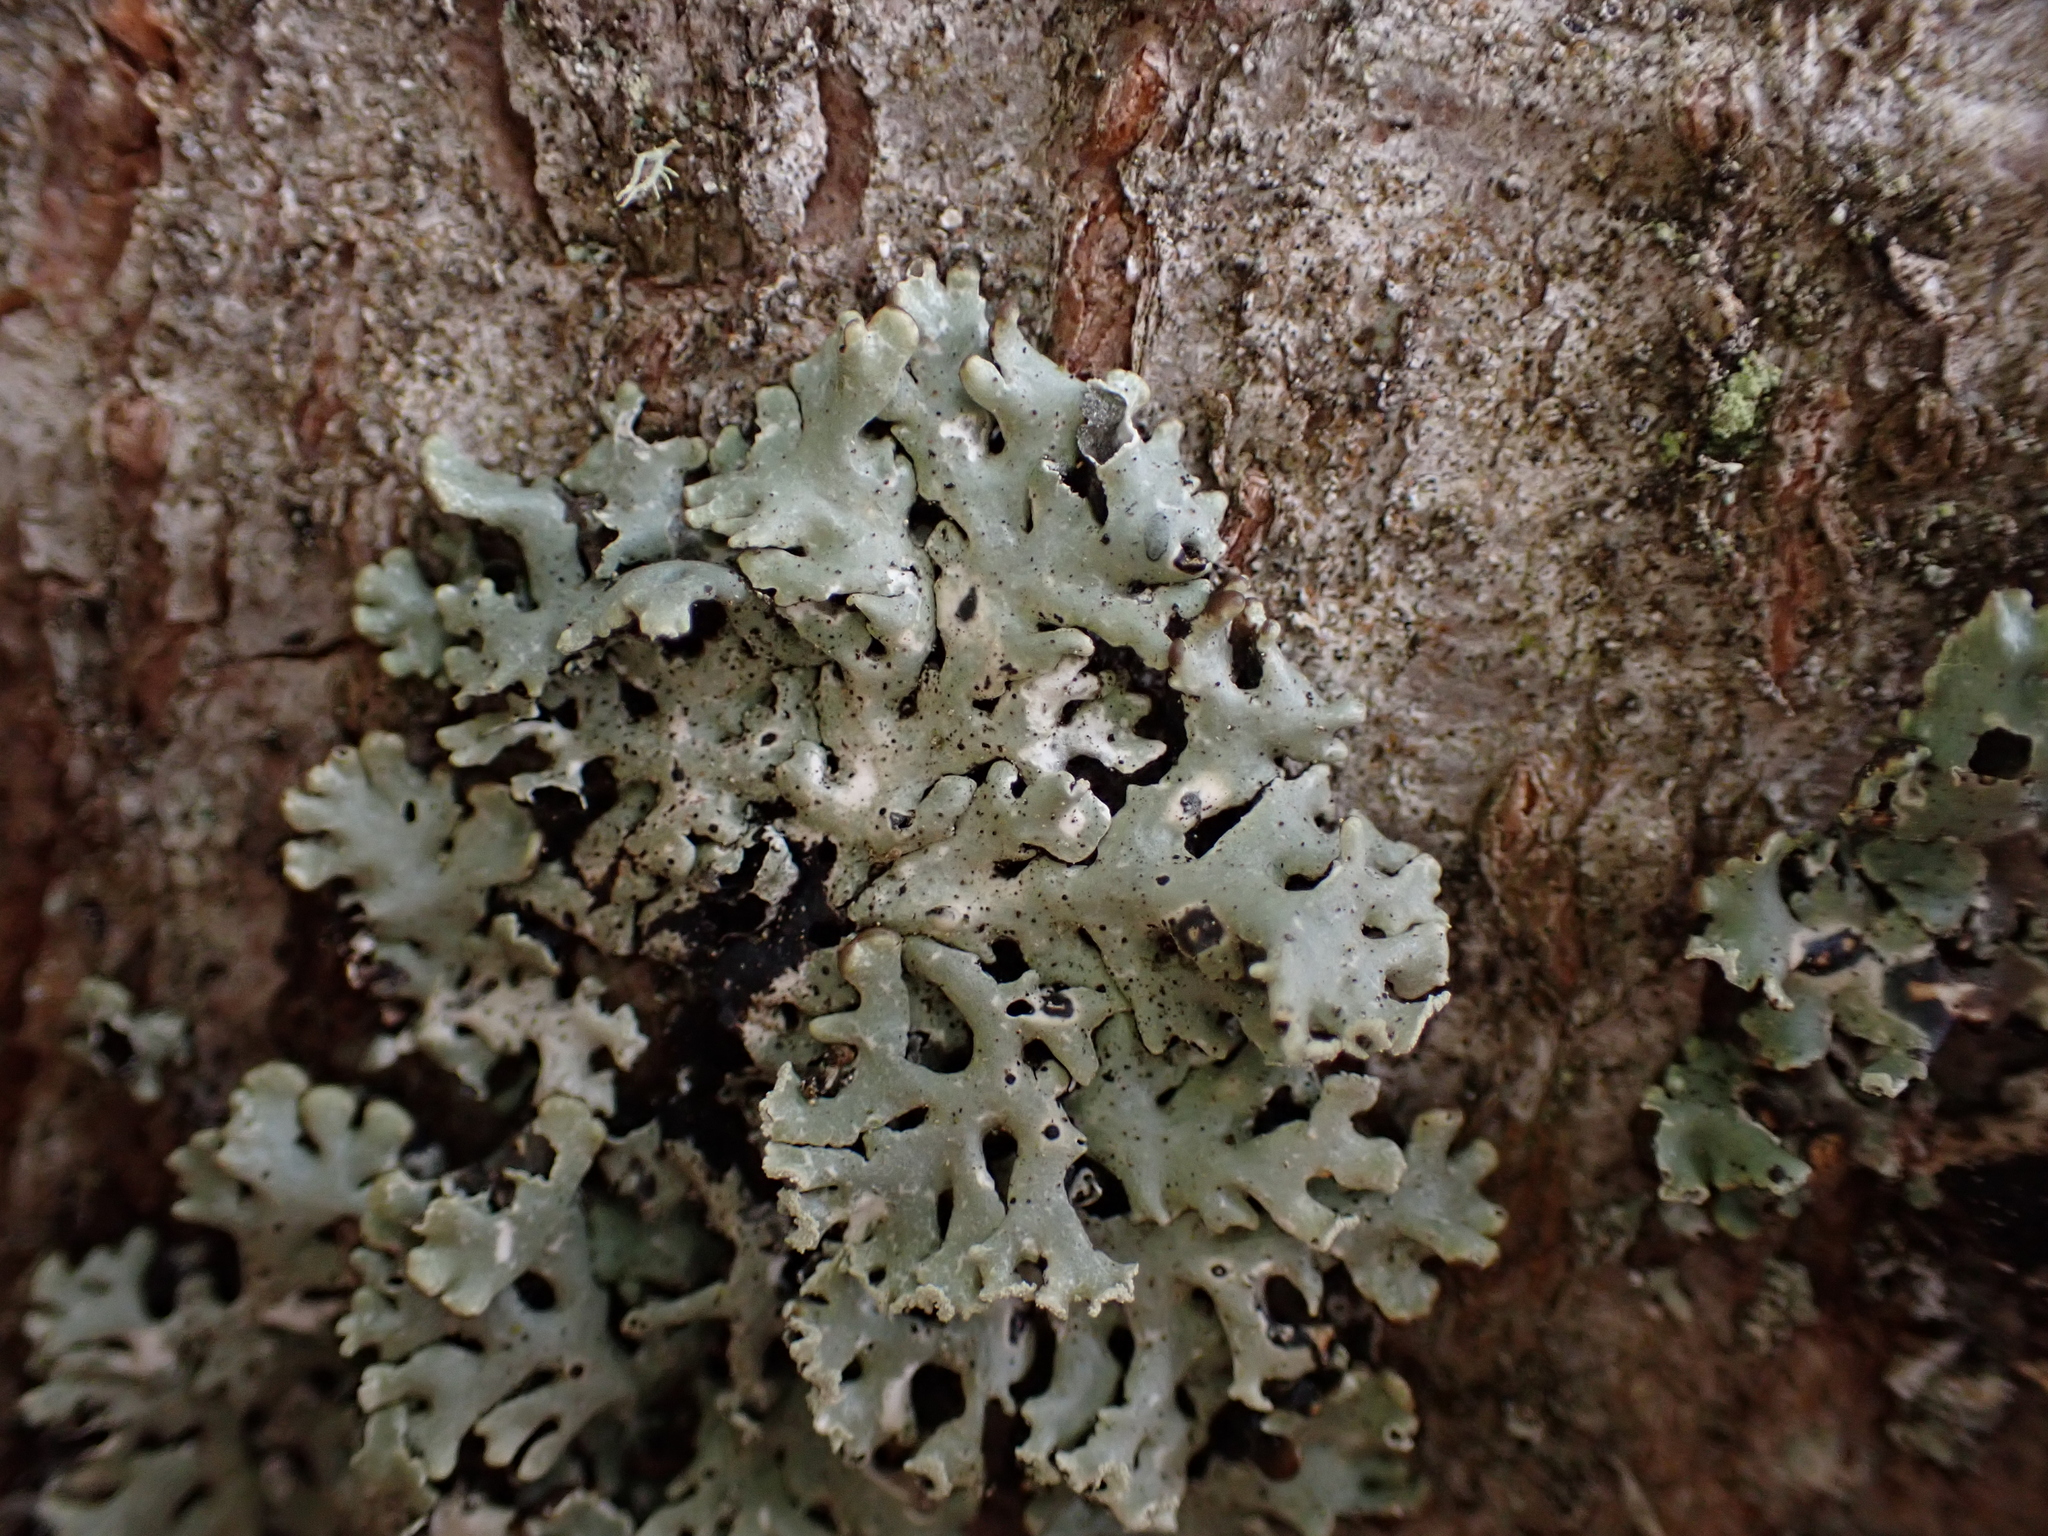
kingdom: Fungi
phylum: Ascomycota
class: Lecanoromycetes
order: Lecanorales
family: Parmeliaceae
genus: Hypogymnia
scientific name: Hypogymnia physodes
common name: Dark crottle
